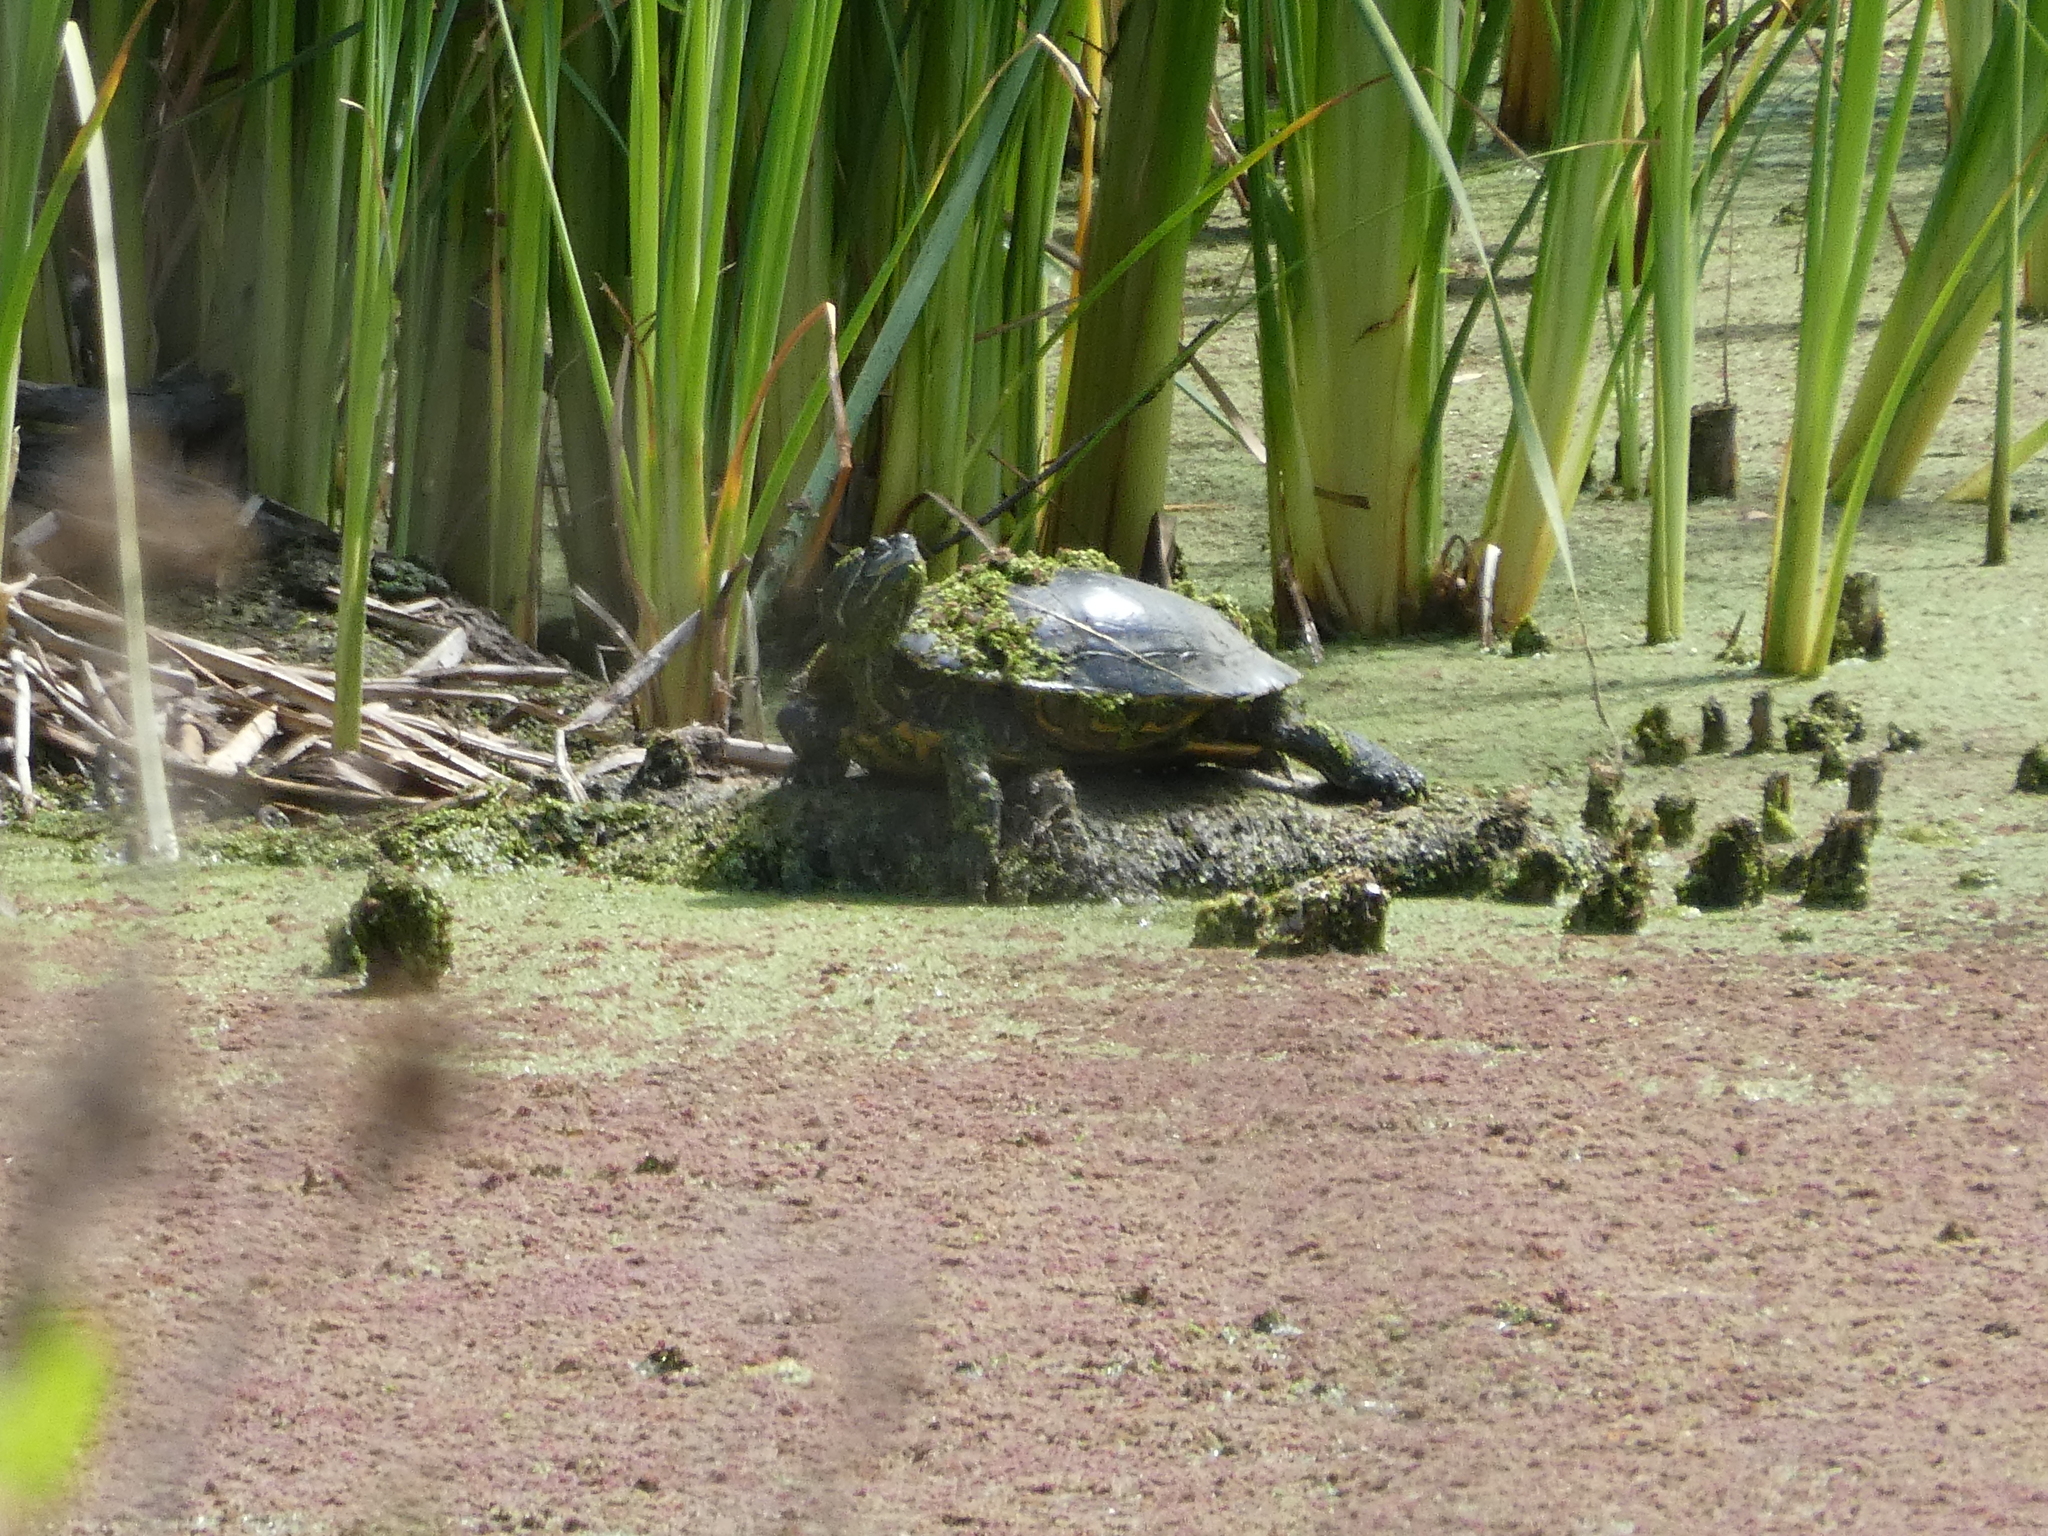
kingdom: Animalia
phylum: Chordata
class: Testudines
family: Emydidae
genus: Trachemys
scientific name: Trachemys scripta
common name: Slider
